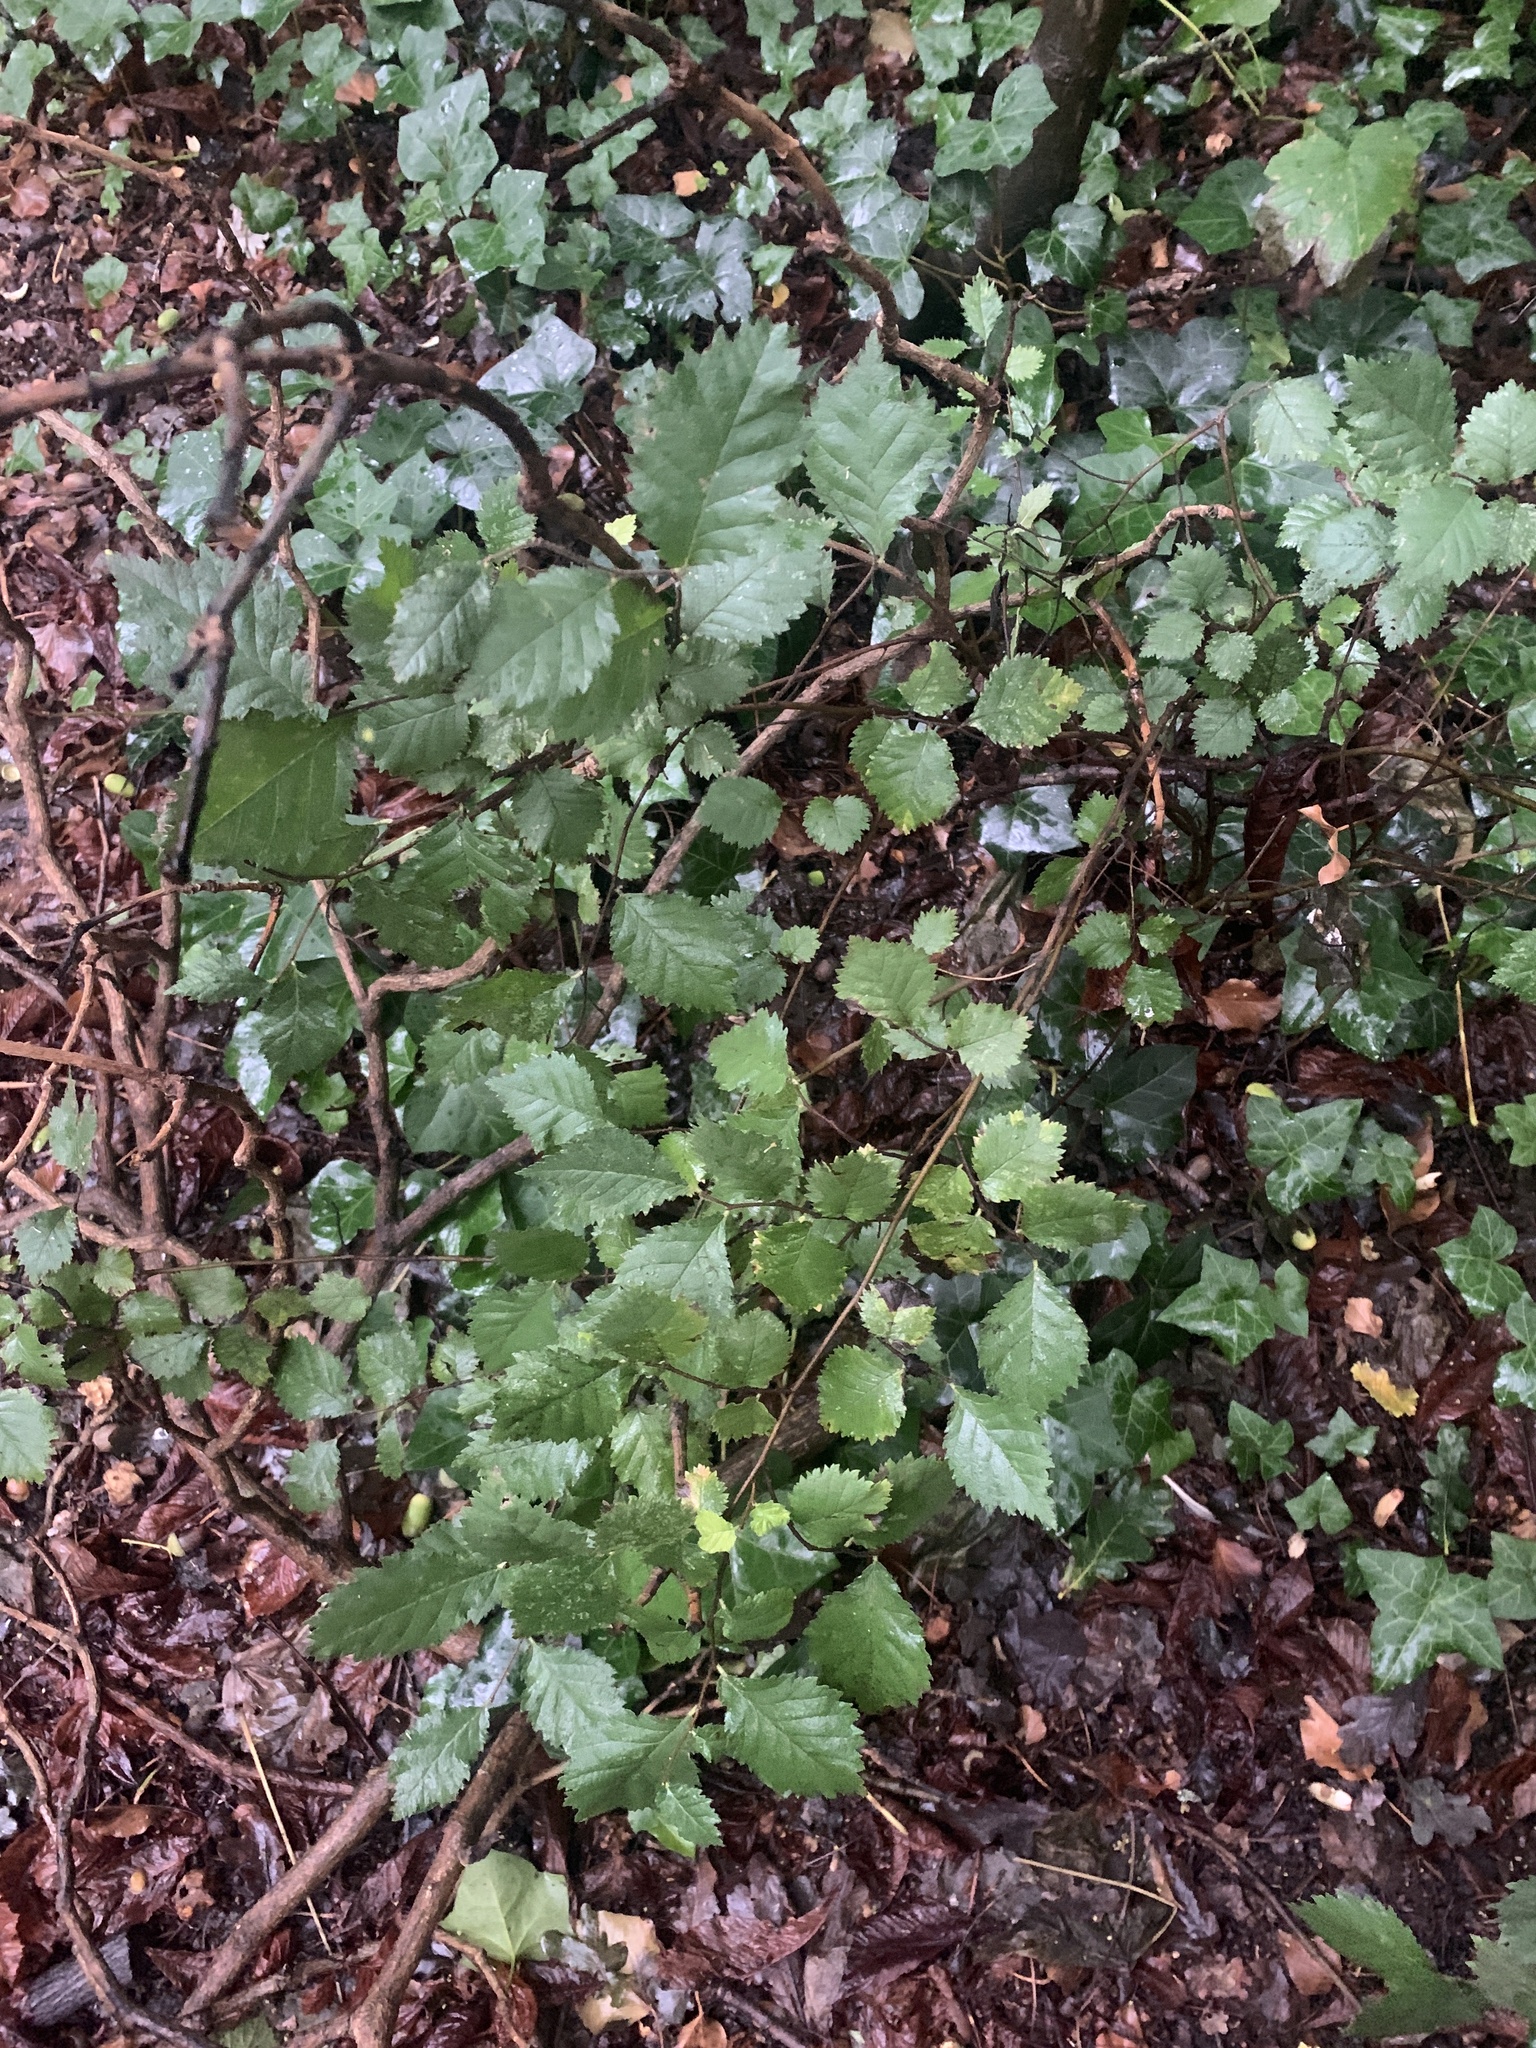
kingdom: Plantae
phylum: Tracheophyta
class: Magnoliopsida
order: Rosales
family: Ulmaceae
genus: Ulmus
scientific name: Ulmus minor
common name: Small-leaved elm
